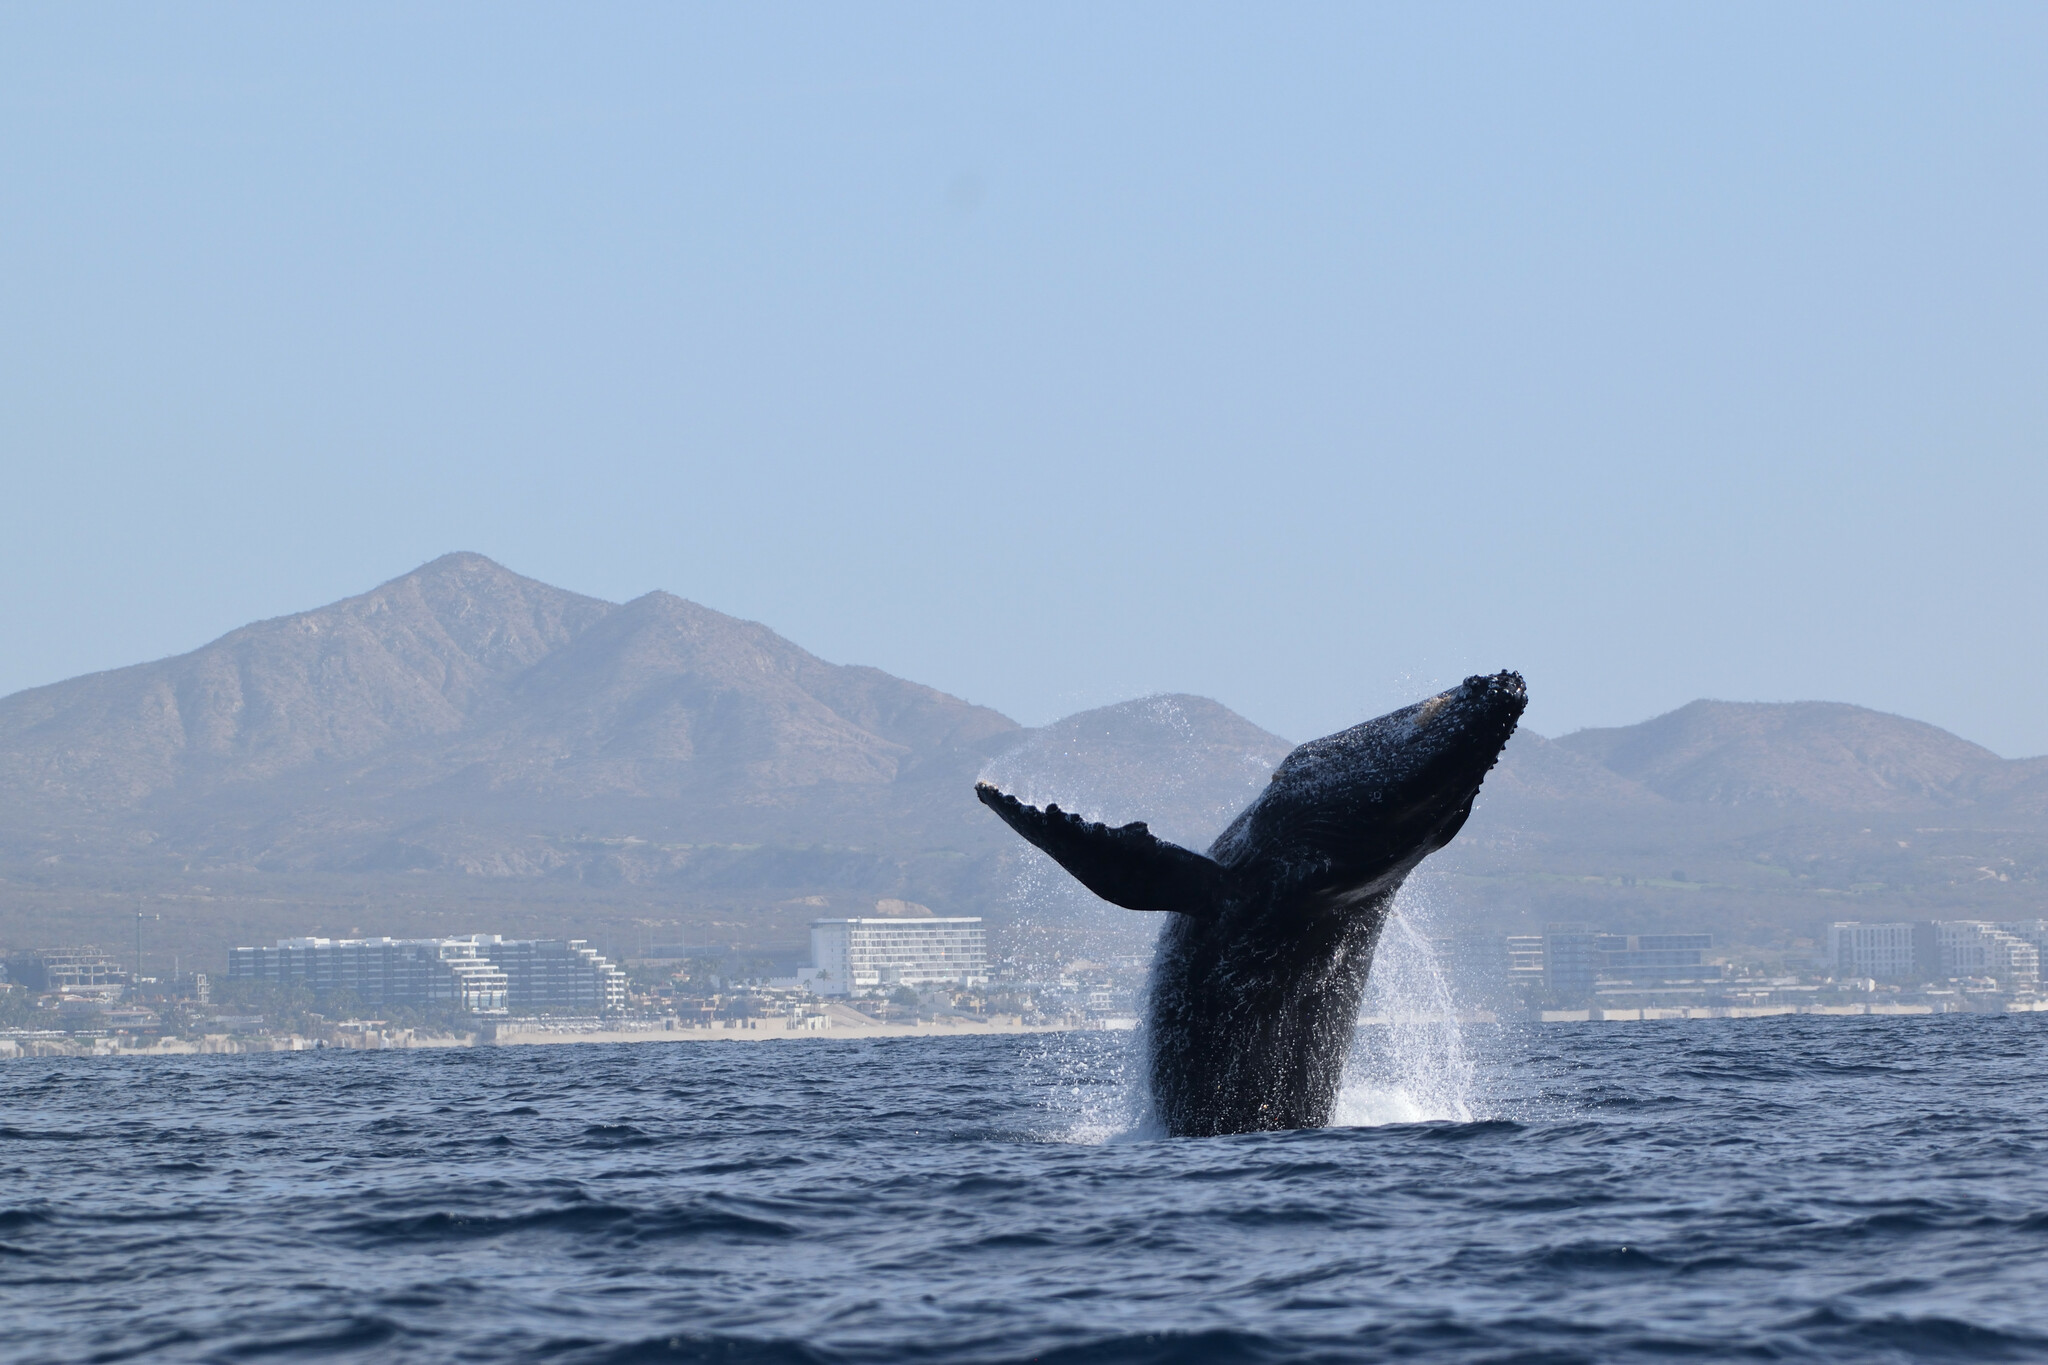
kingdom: Animalia
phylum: Chordata
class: Mammalia
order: Cetacea
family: Balaenopteridae
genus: Megaptera
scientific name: Megaptera novaeangliae
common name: Humpback whale
